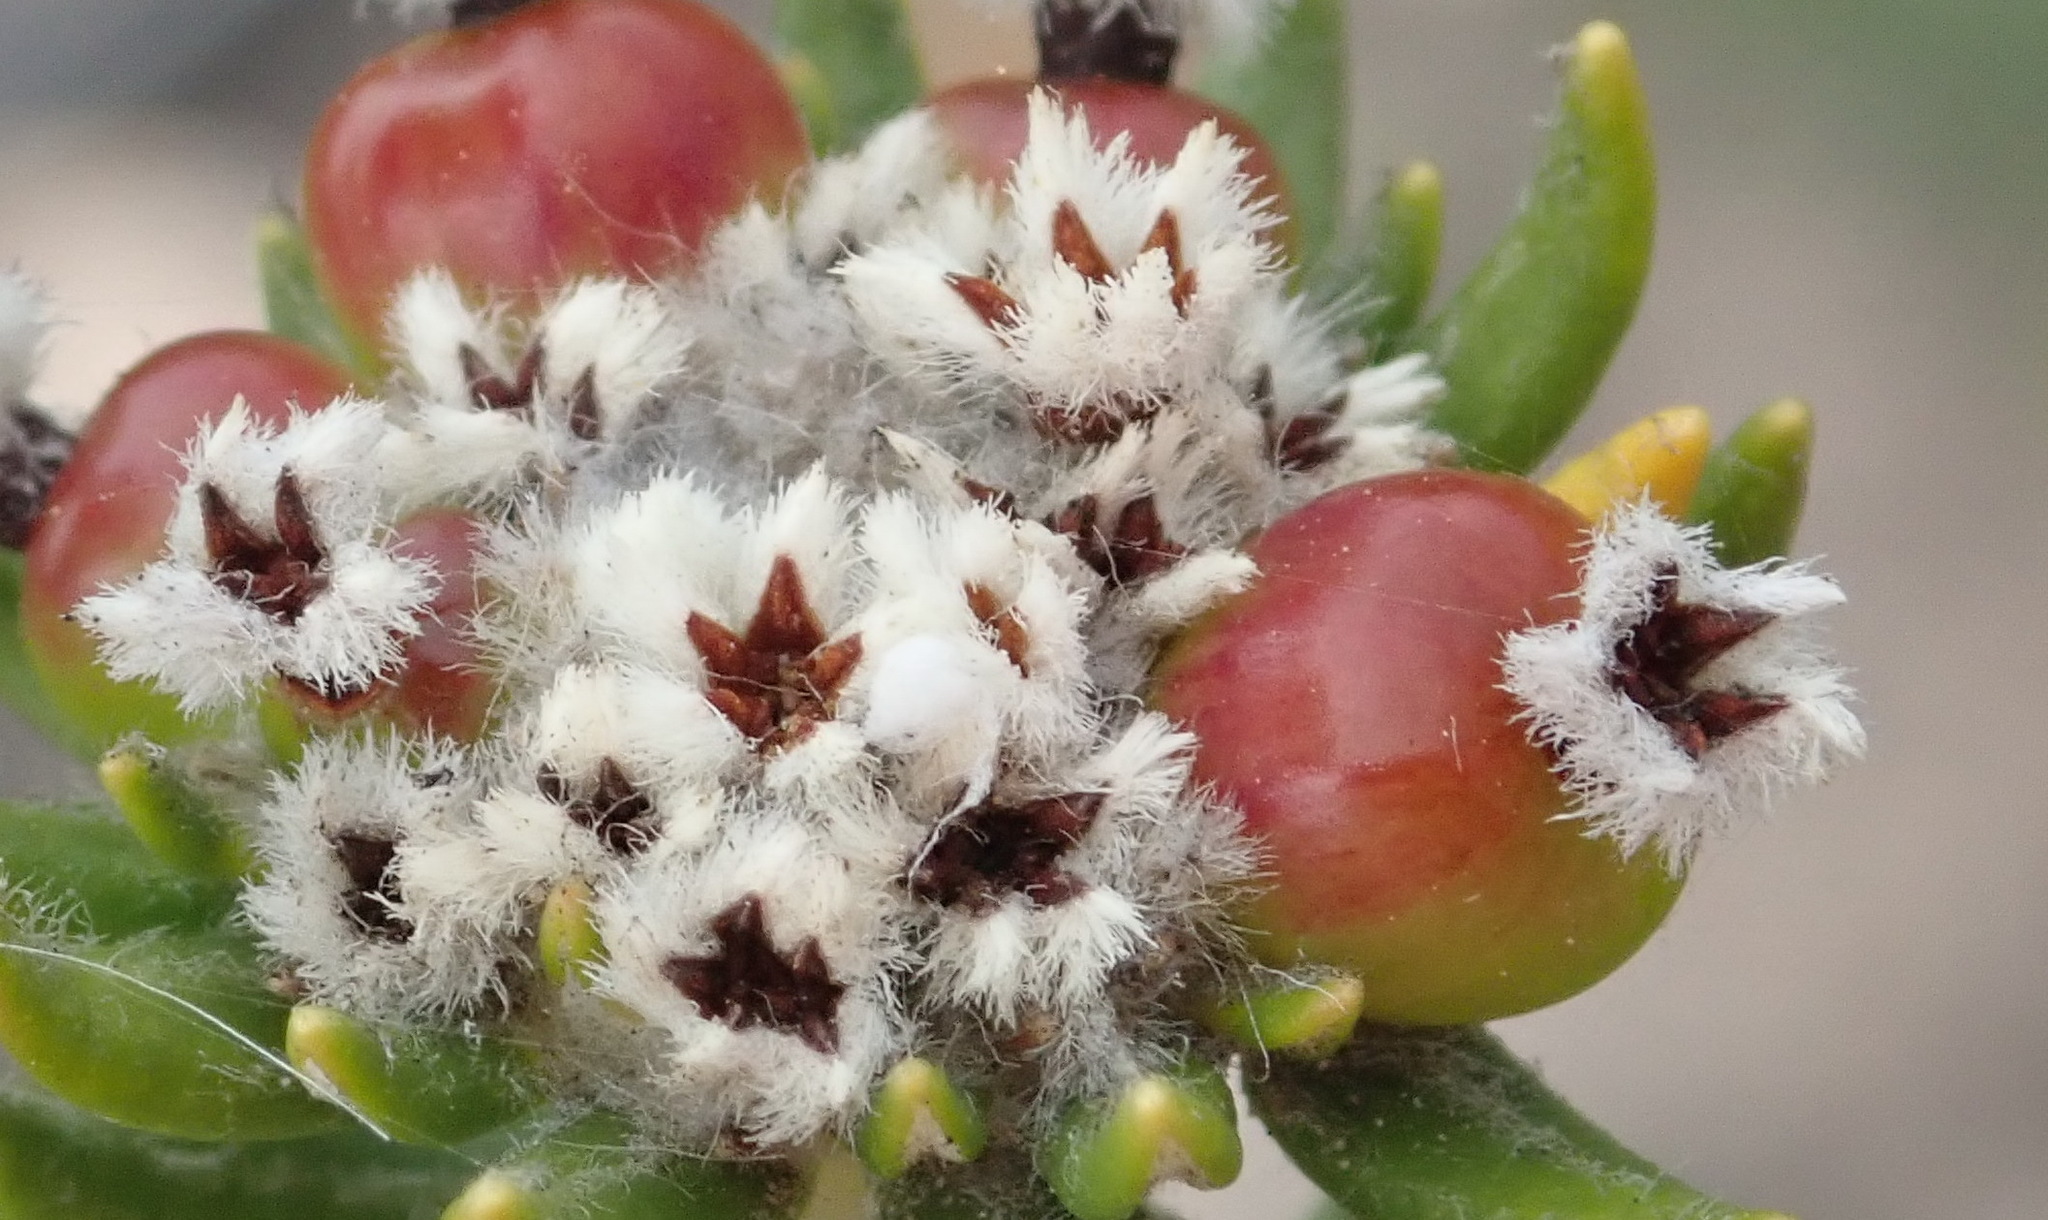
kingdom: Plantae
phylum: Tracheophyta
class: Magnoliopsida
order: Rosales
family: Rhamnaceae
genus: Phylica
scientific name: Phylica litoralis
